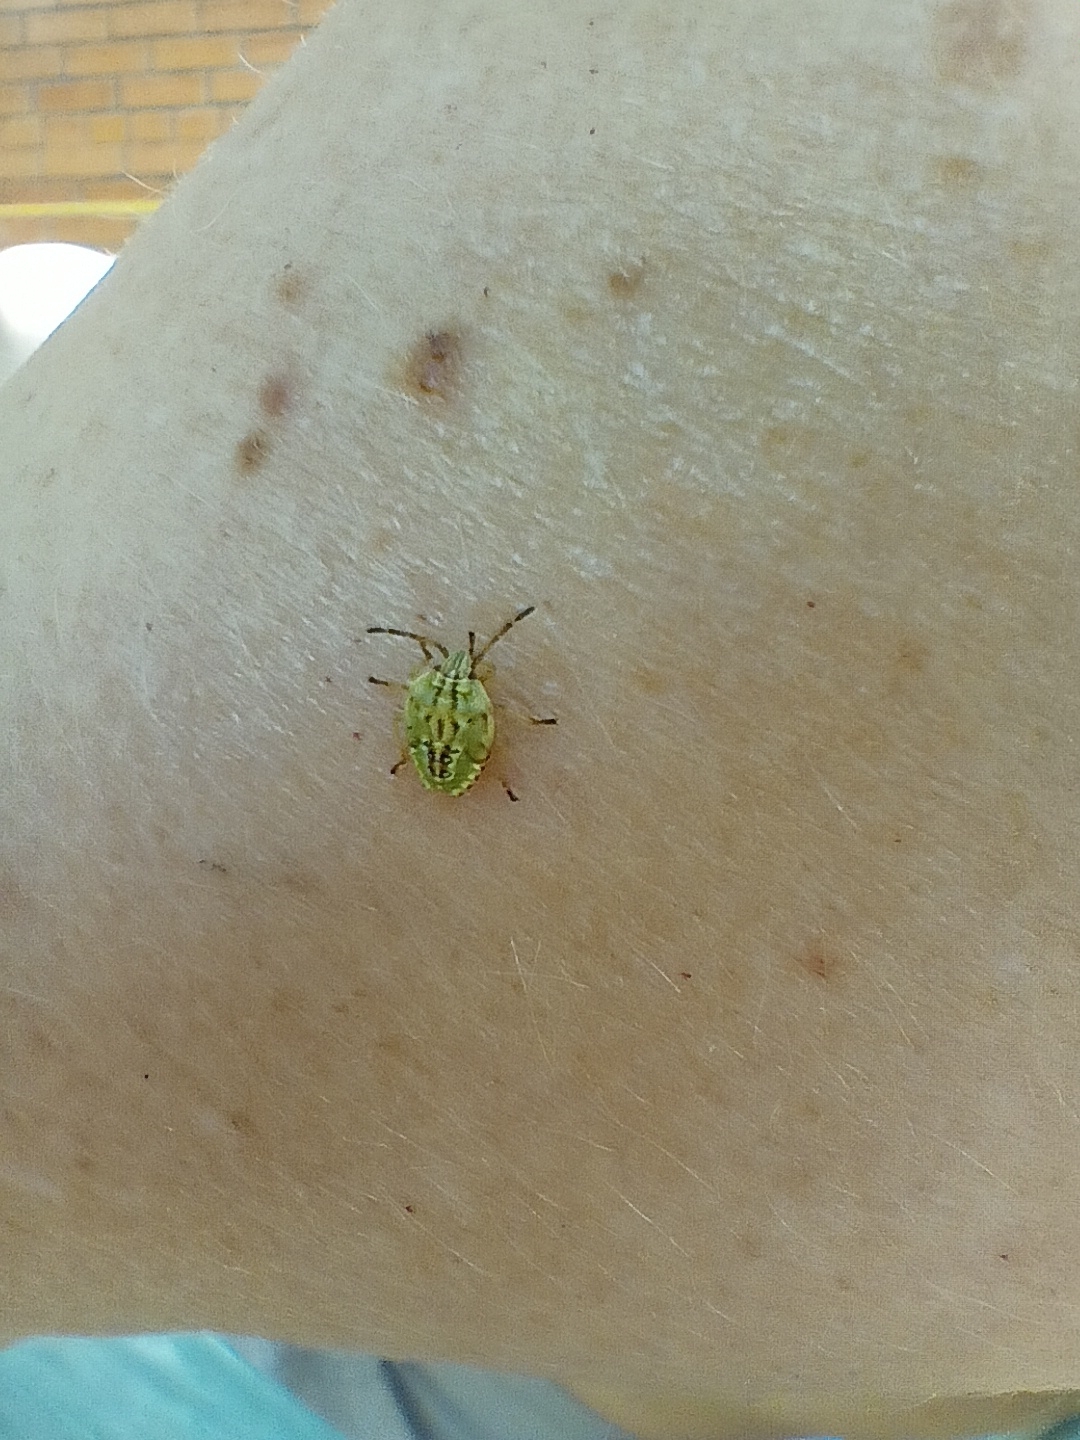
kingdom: Animalia
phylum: Arthropoda
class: Insecta
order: Hemiptera
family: Acanthosomatidae
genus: Elasmucha
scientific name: Elasmucha grisea
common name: Parent bug
